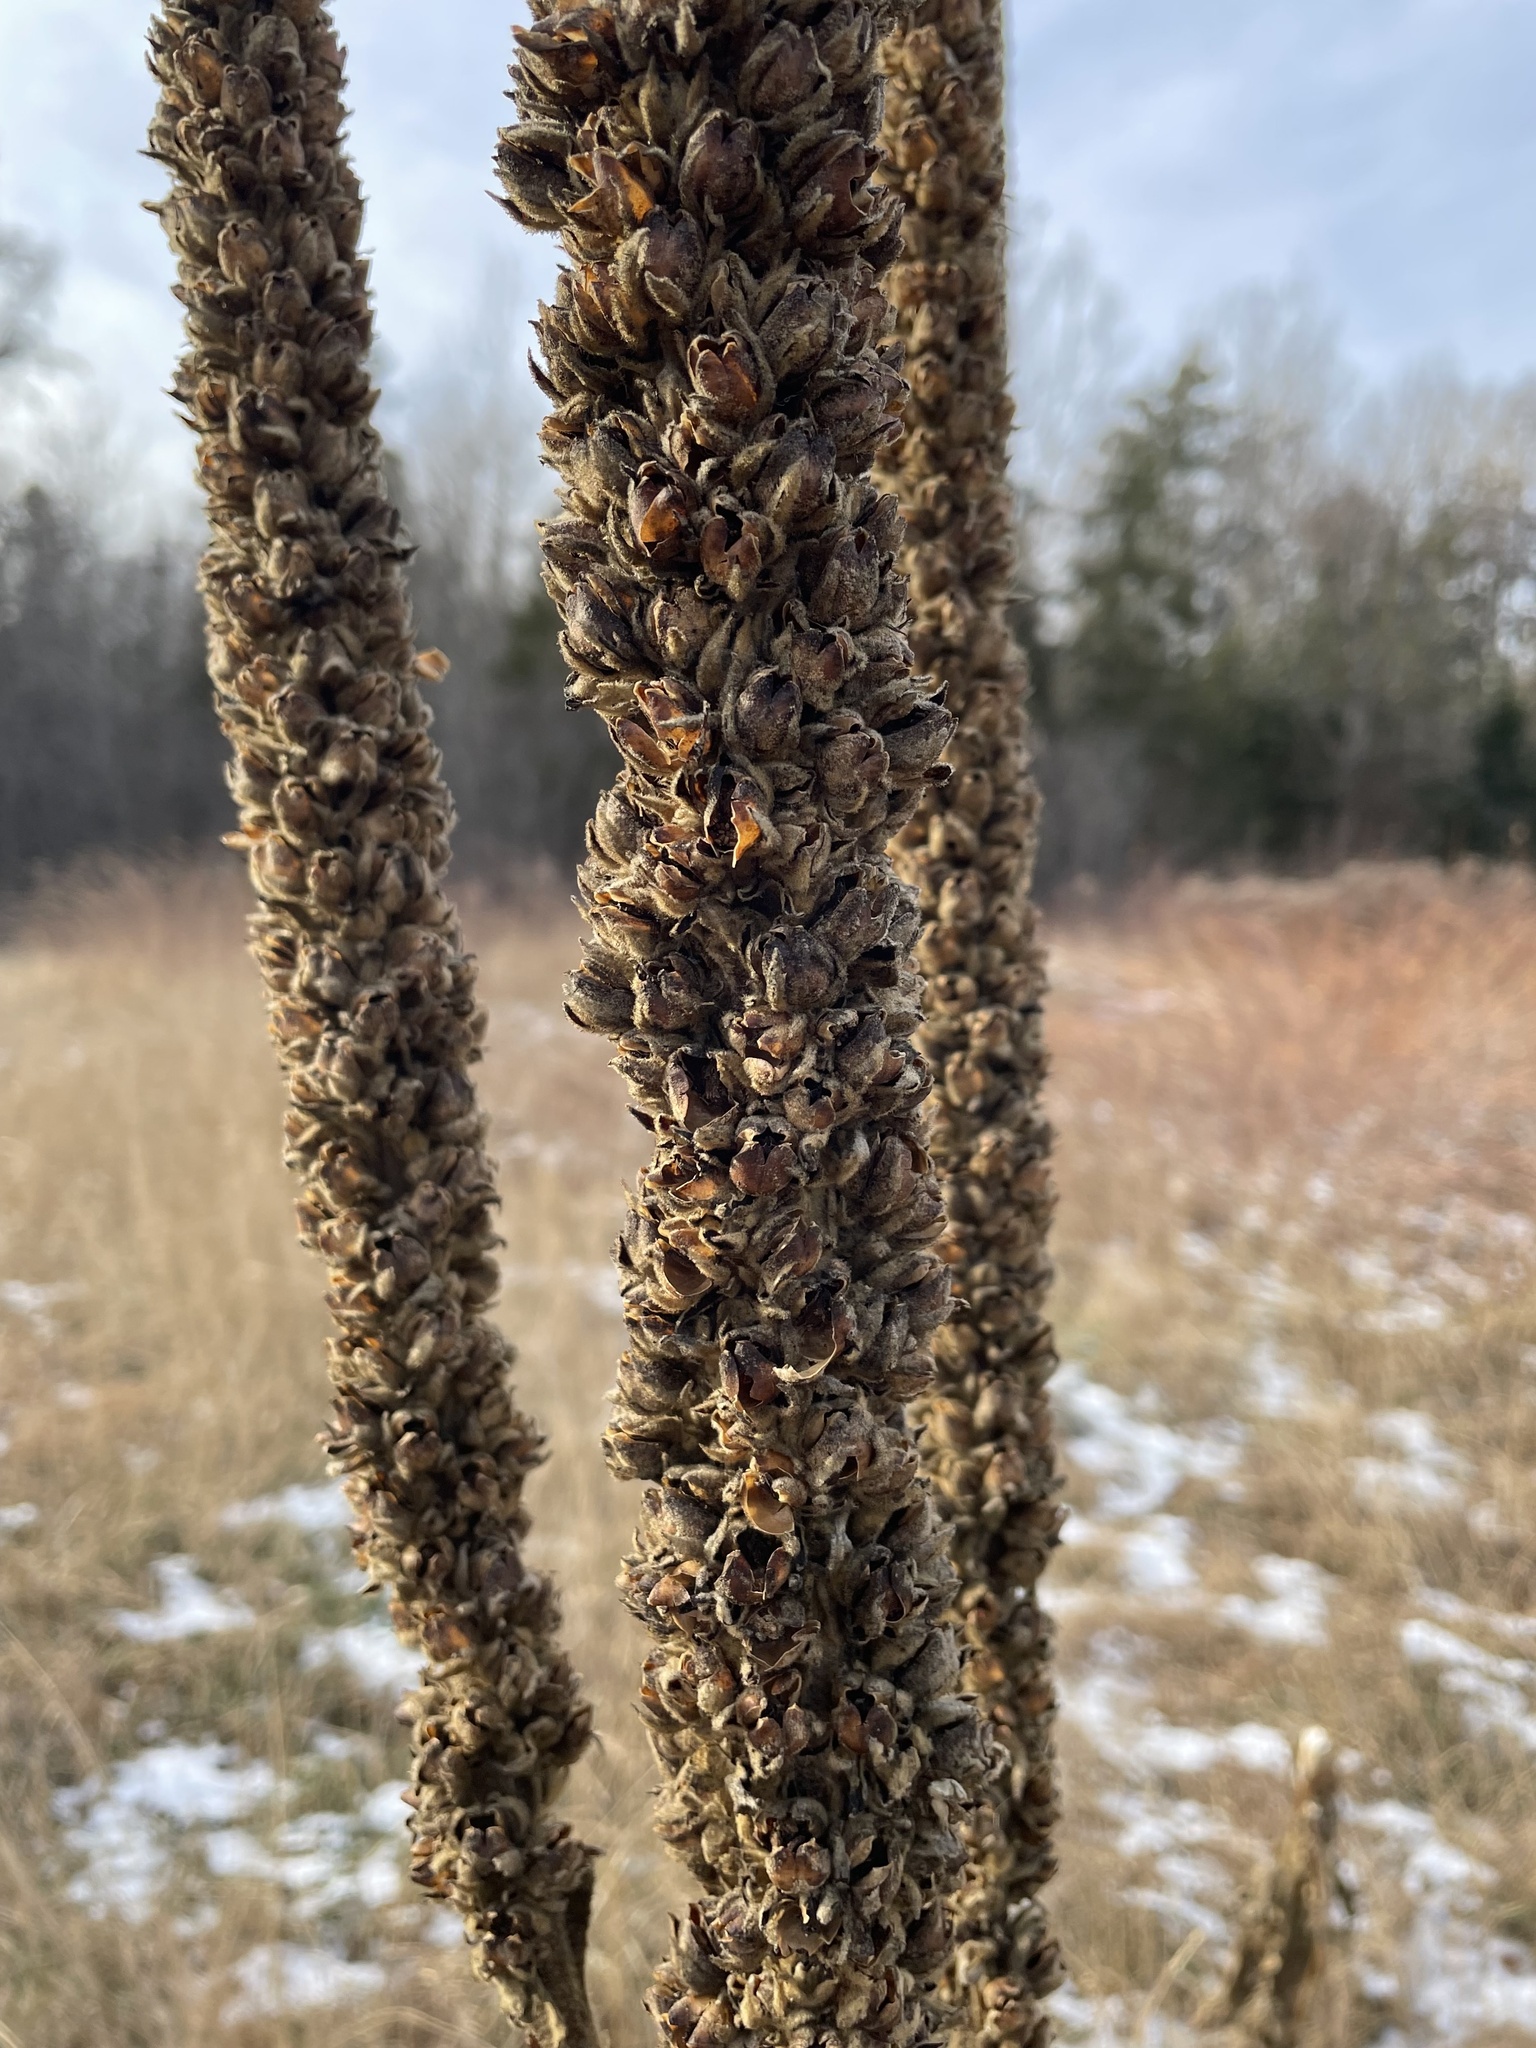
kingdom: Plantae
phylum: Tracheophyta
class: Magnoliopsida
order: Lamiales
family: Scrophulariaceae
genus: Verbascum
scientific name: Verbascum thapsus
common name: Common mullein
